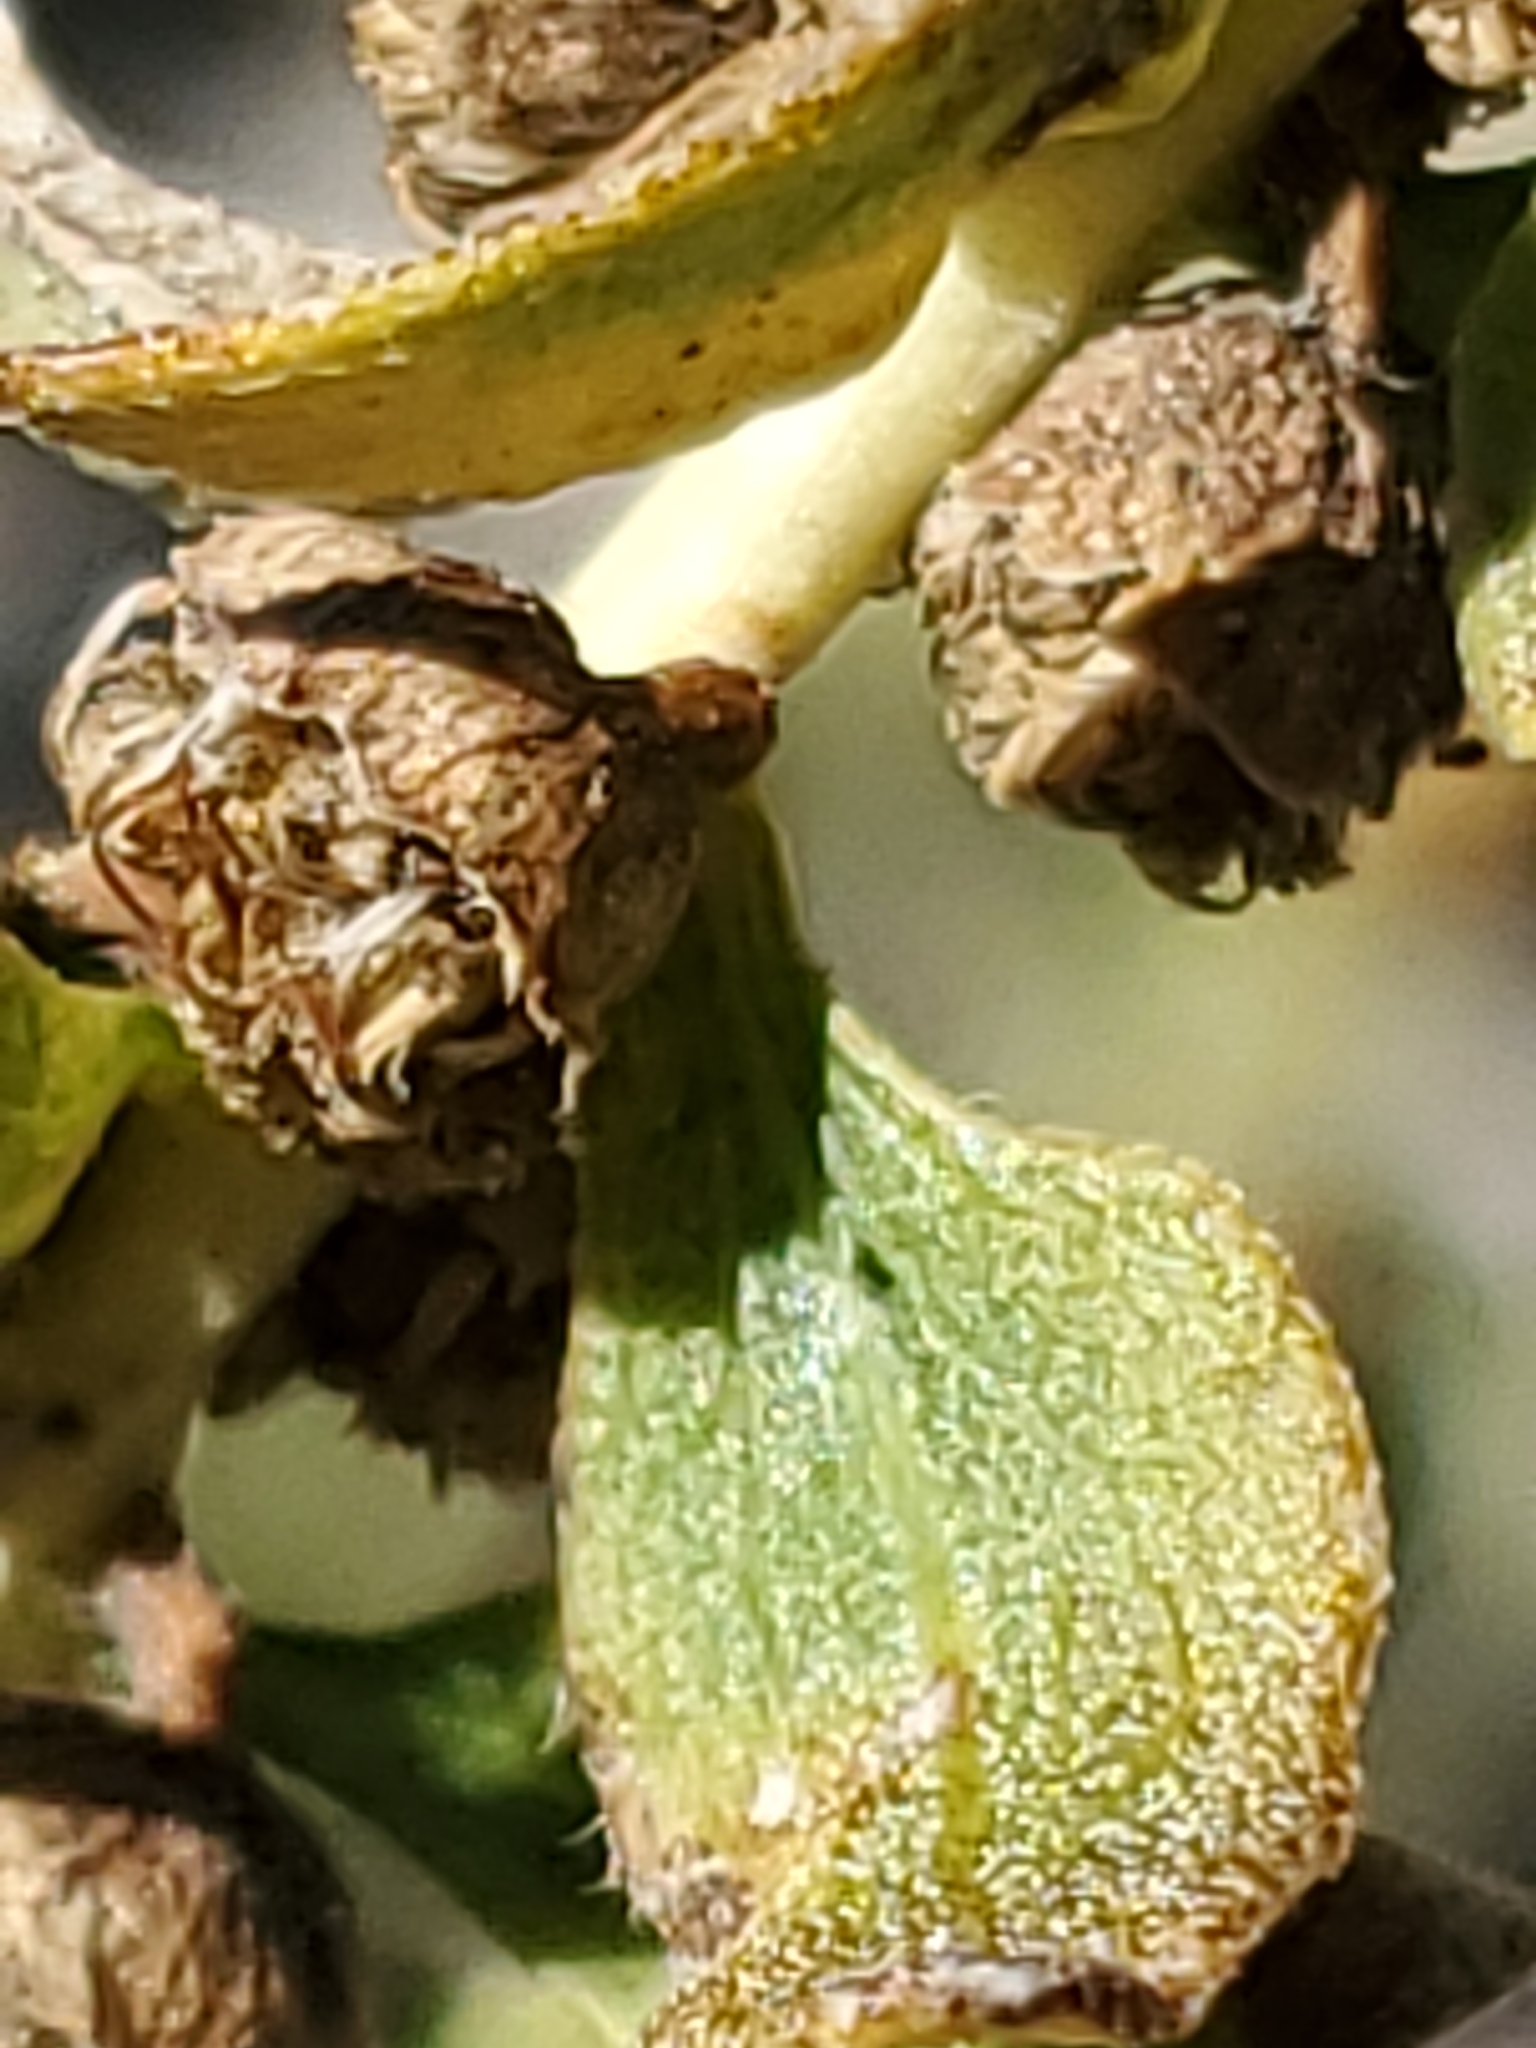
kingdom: Plantae
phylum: Tracheophyta
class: Magnoliopsida
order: Asterales
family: Asteraceae
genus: Iva
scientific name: Iva axillaris
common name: Poverty sumpweed
